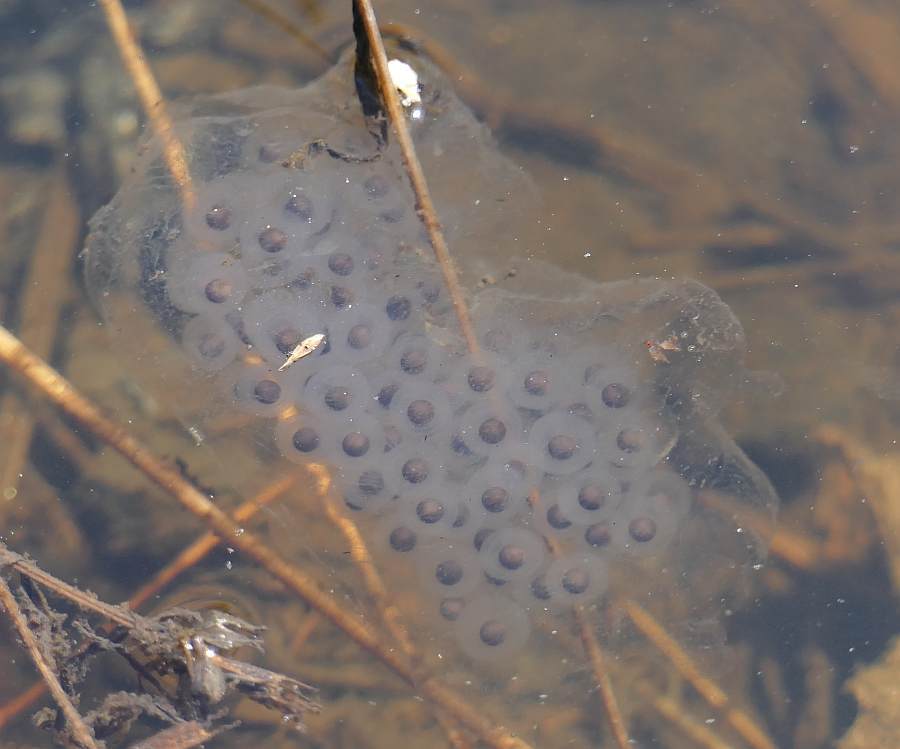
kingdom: Animalia
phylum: Chordata
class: Amphibia
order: Caudata
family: Ambystomatidae
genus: Ambystoma
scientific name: Ambystoma maculatum
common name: Spotted salamander
